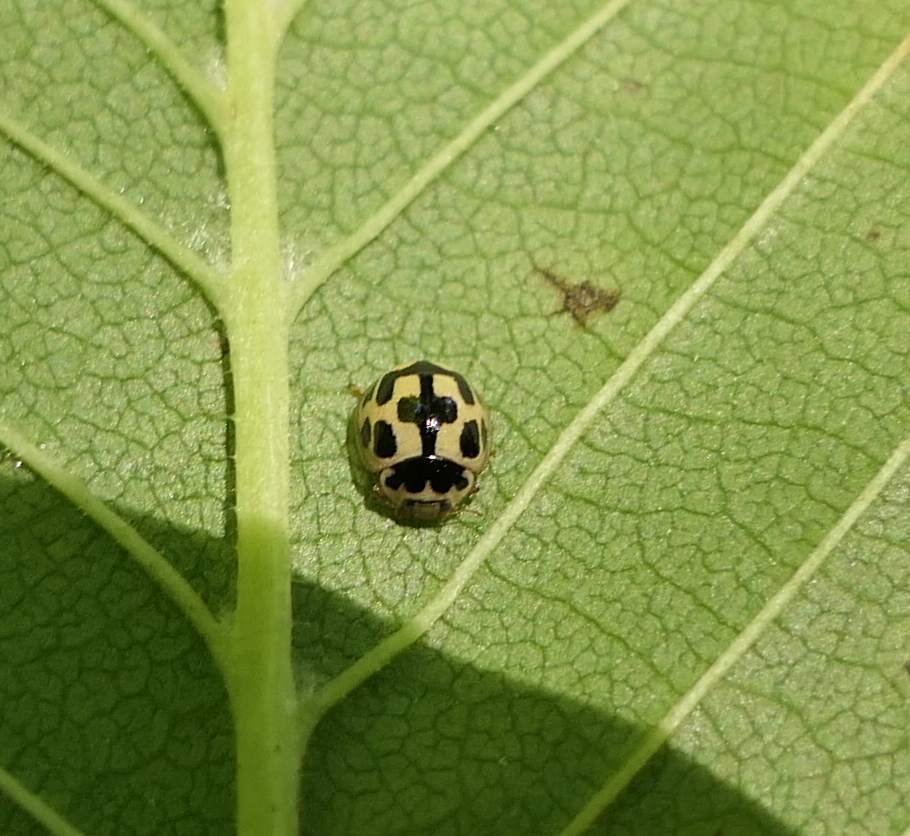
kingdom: Animalia
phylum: Arthropoda
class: Insecta
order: Coleoptera
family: Coccinellidae
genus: Propylaea
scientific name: Propylaea quatuordecimpunctata
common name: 14-spotted ladybird beetle
